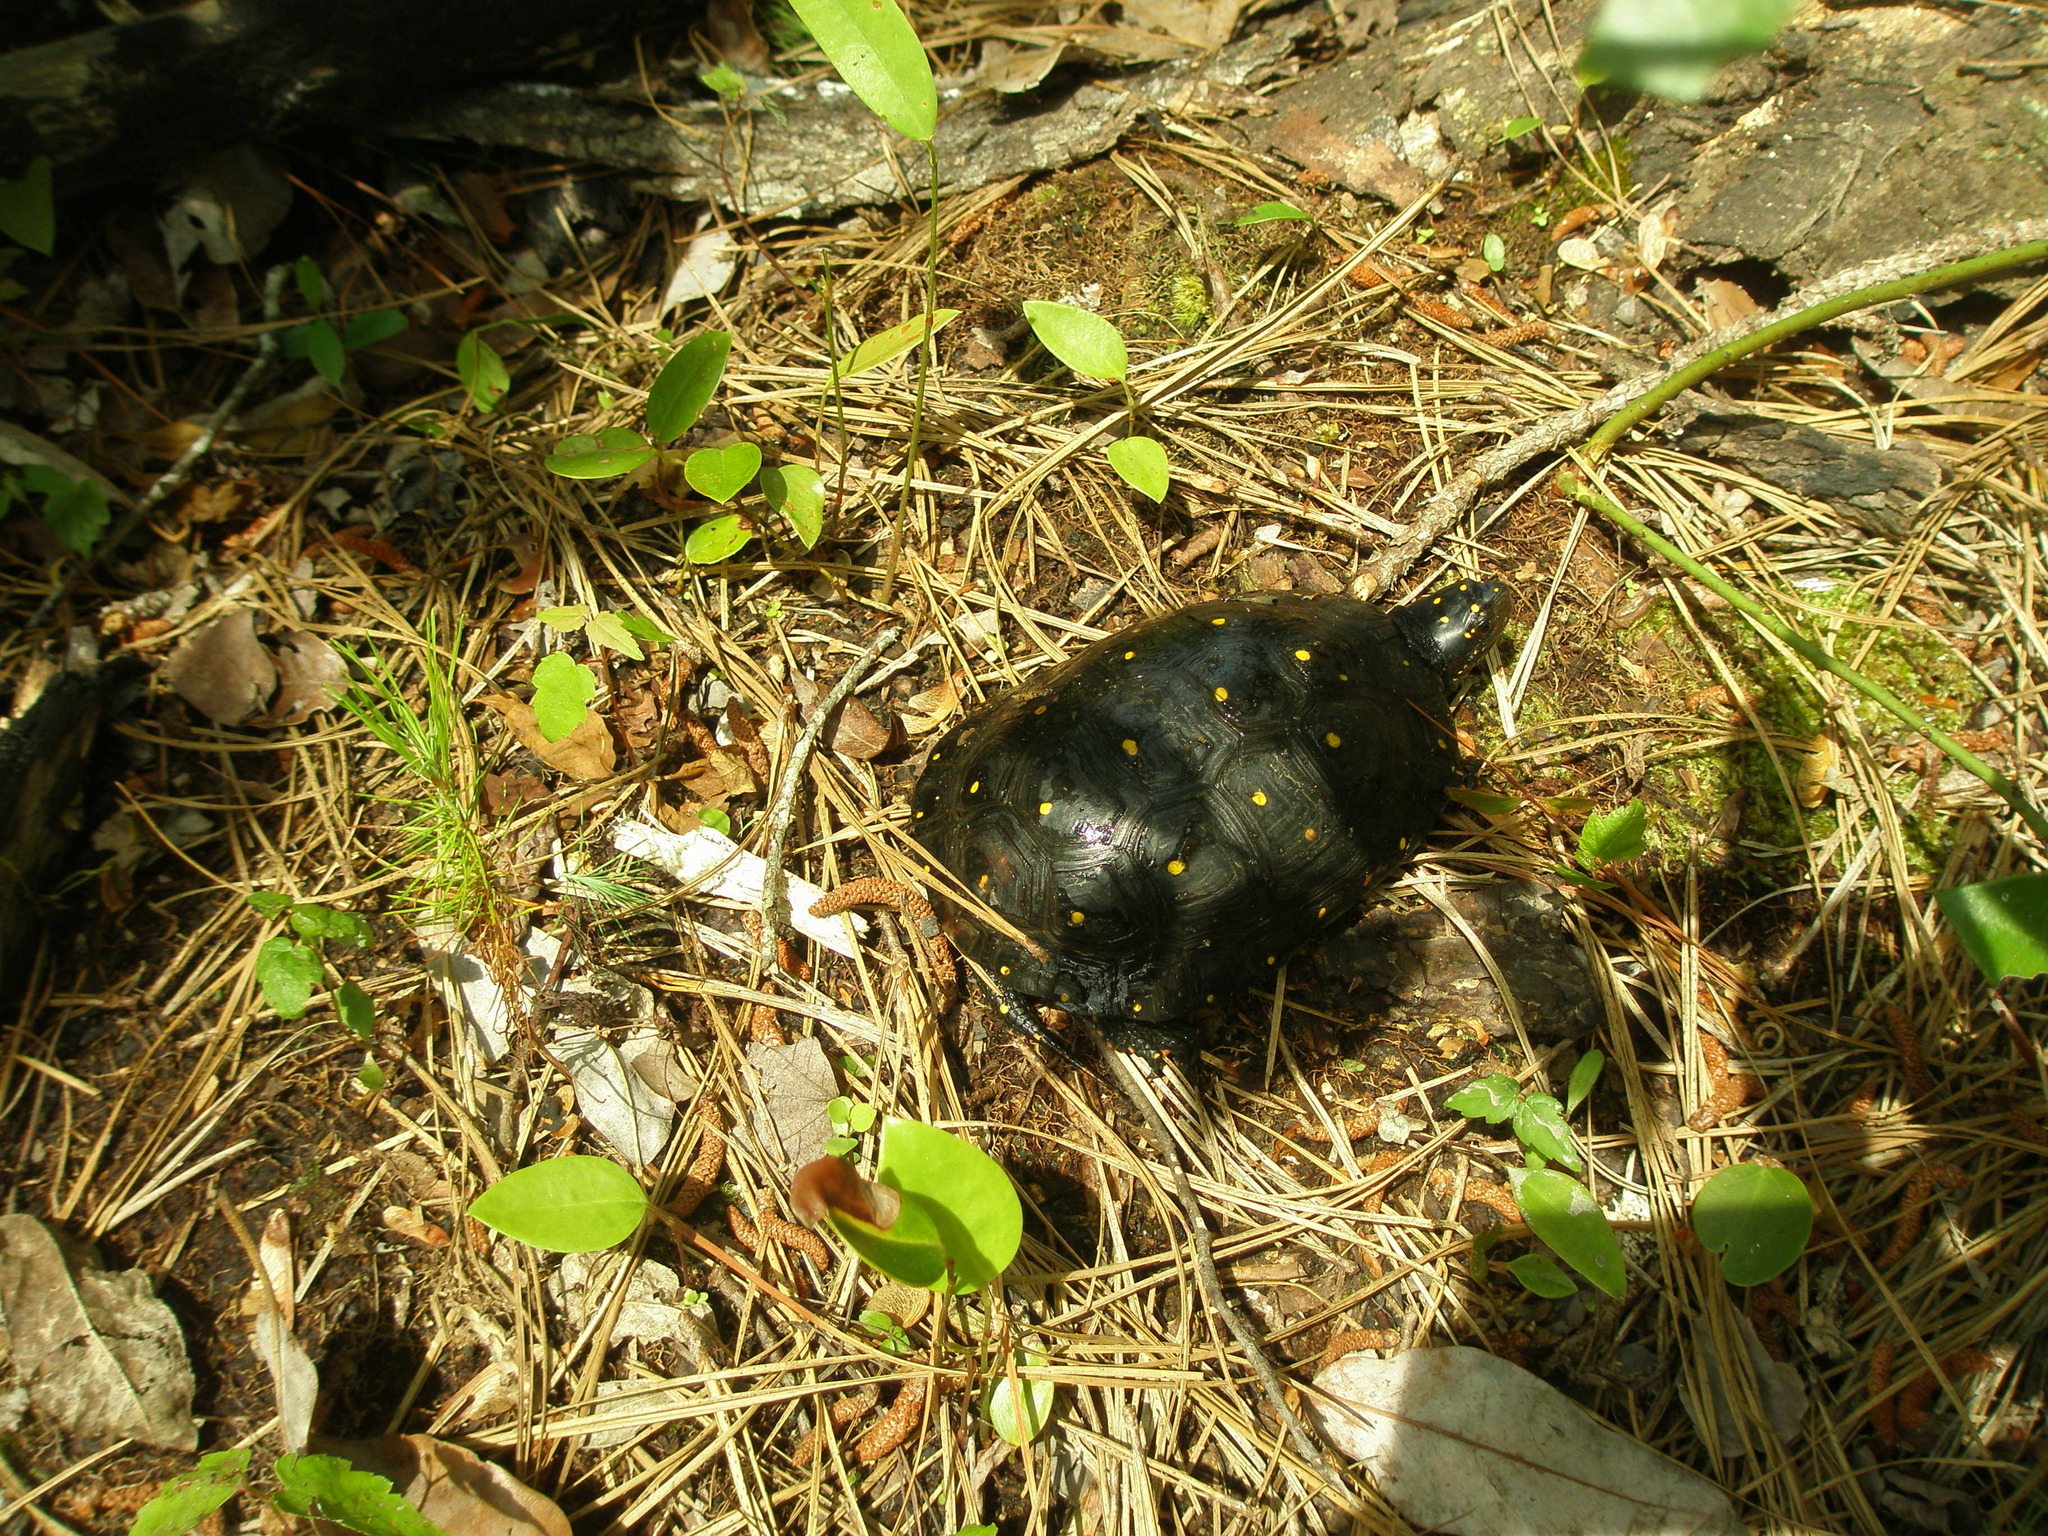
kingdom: Animalia
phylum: Chordata
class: Testudines
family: Emydidae
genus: Clemmys
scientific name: Clemmys guttata
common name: Spotted turtle
